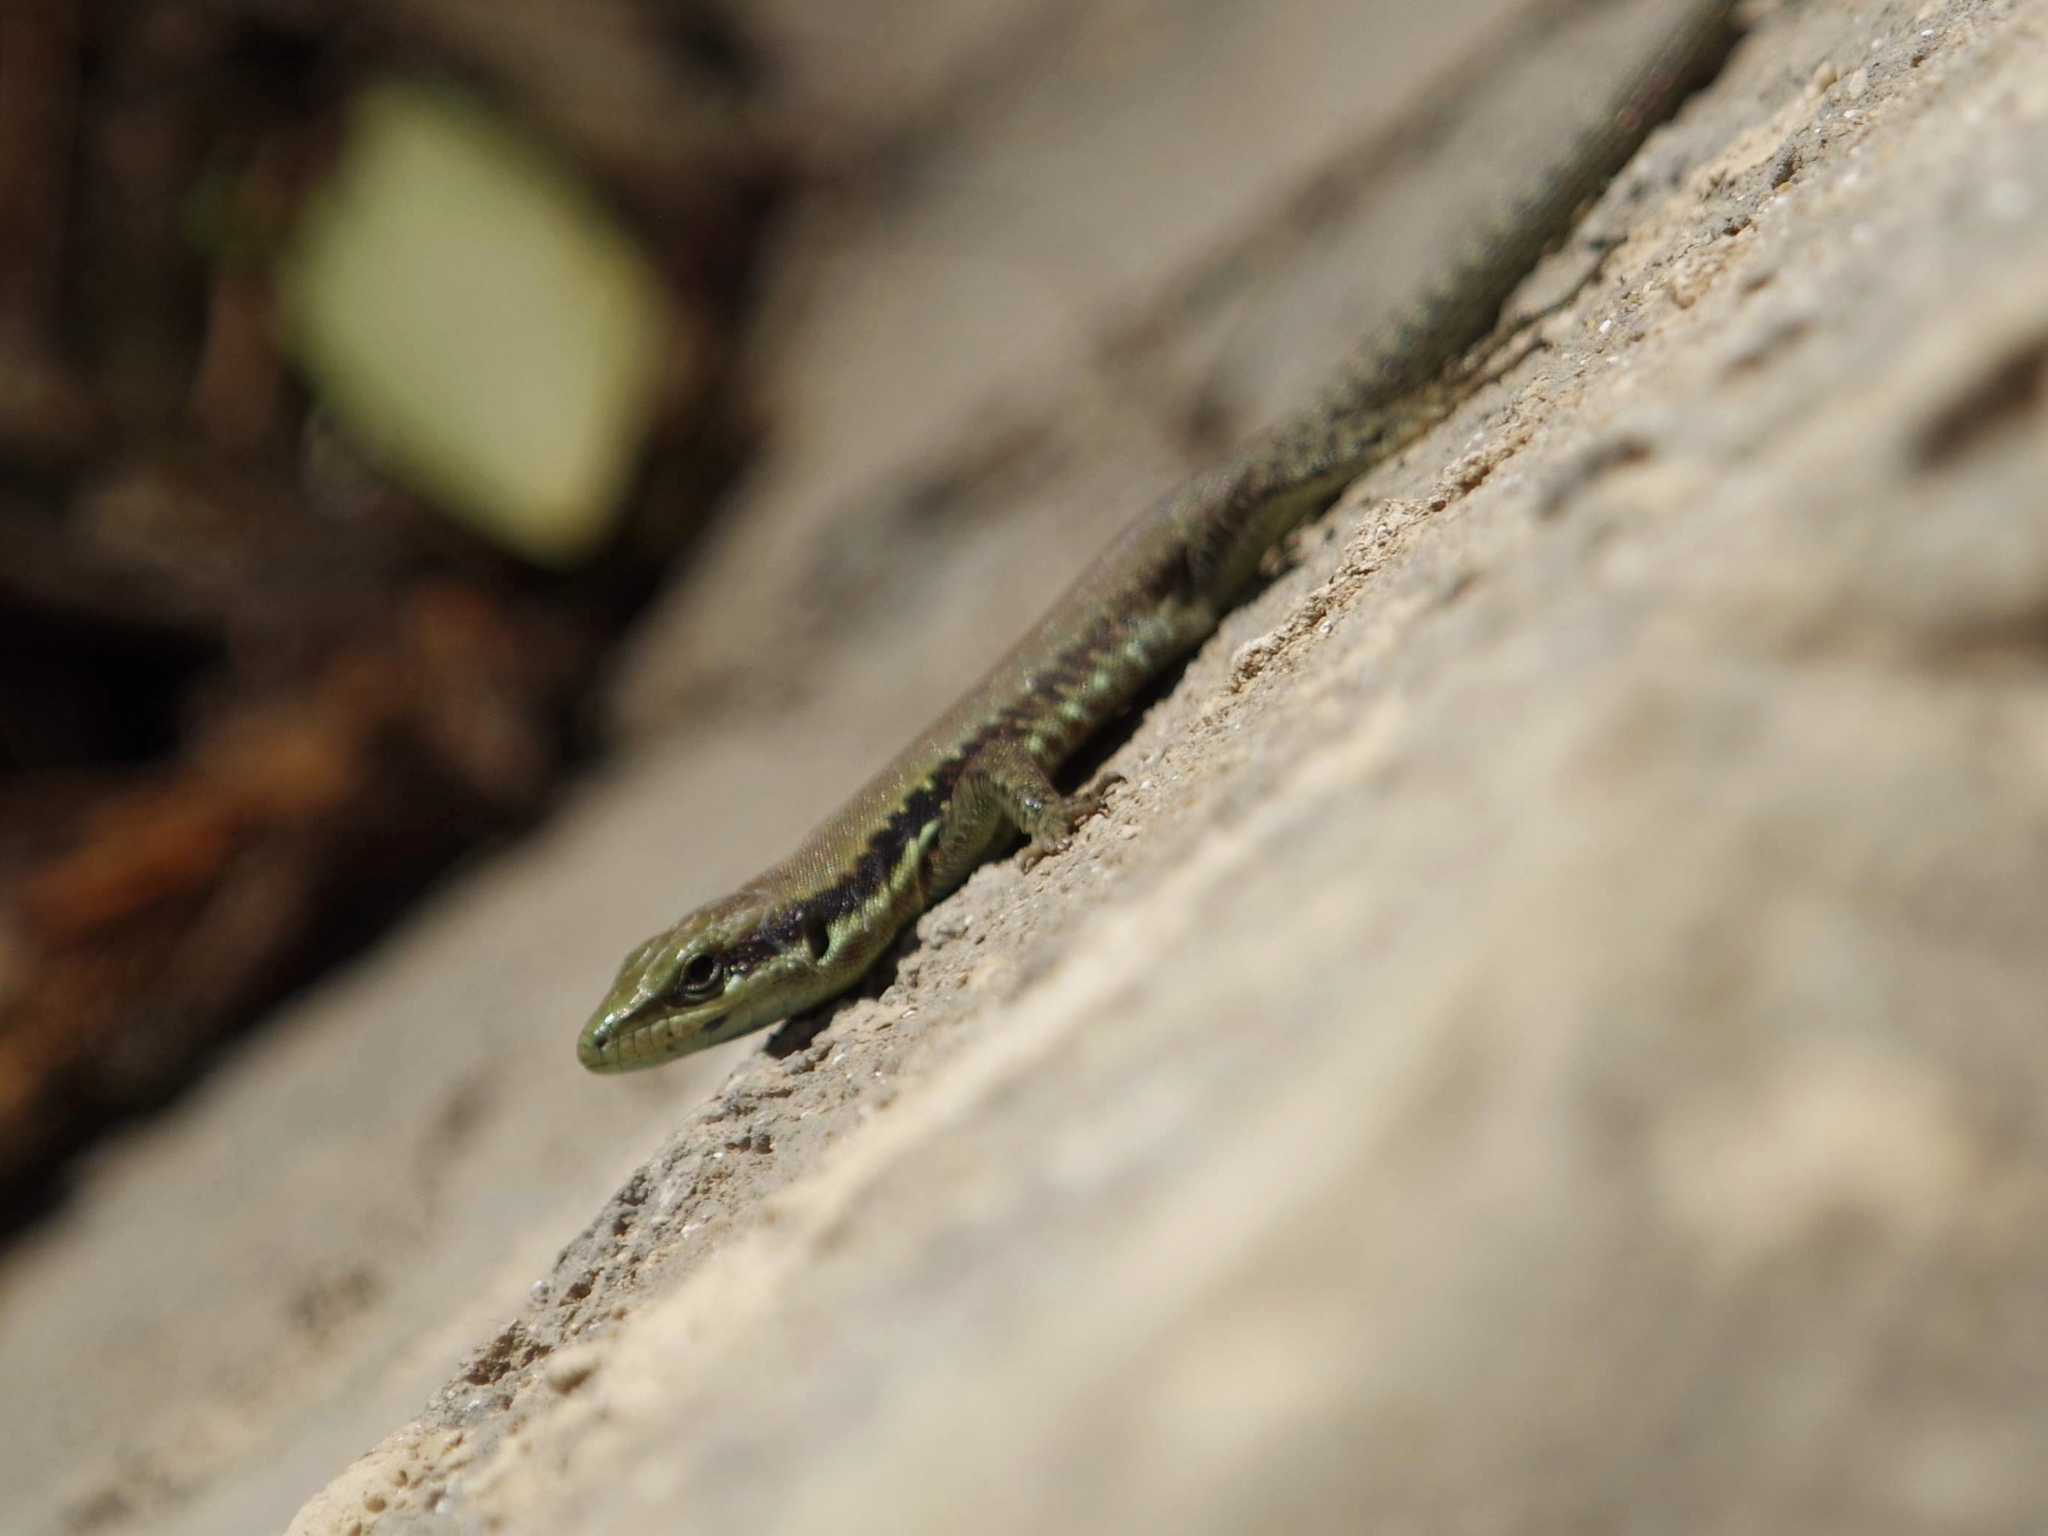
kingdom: Animalia
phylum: Chordata
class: Squamata
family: Lacertidae
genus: Phoenicolacerta
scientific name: Phoenicolacerta laevis
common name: Lebanon lizard
